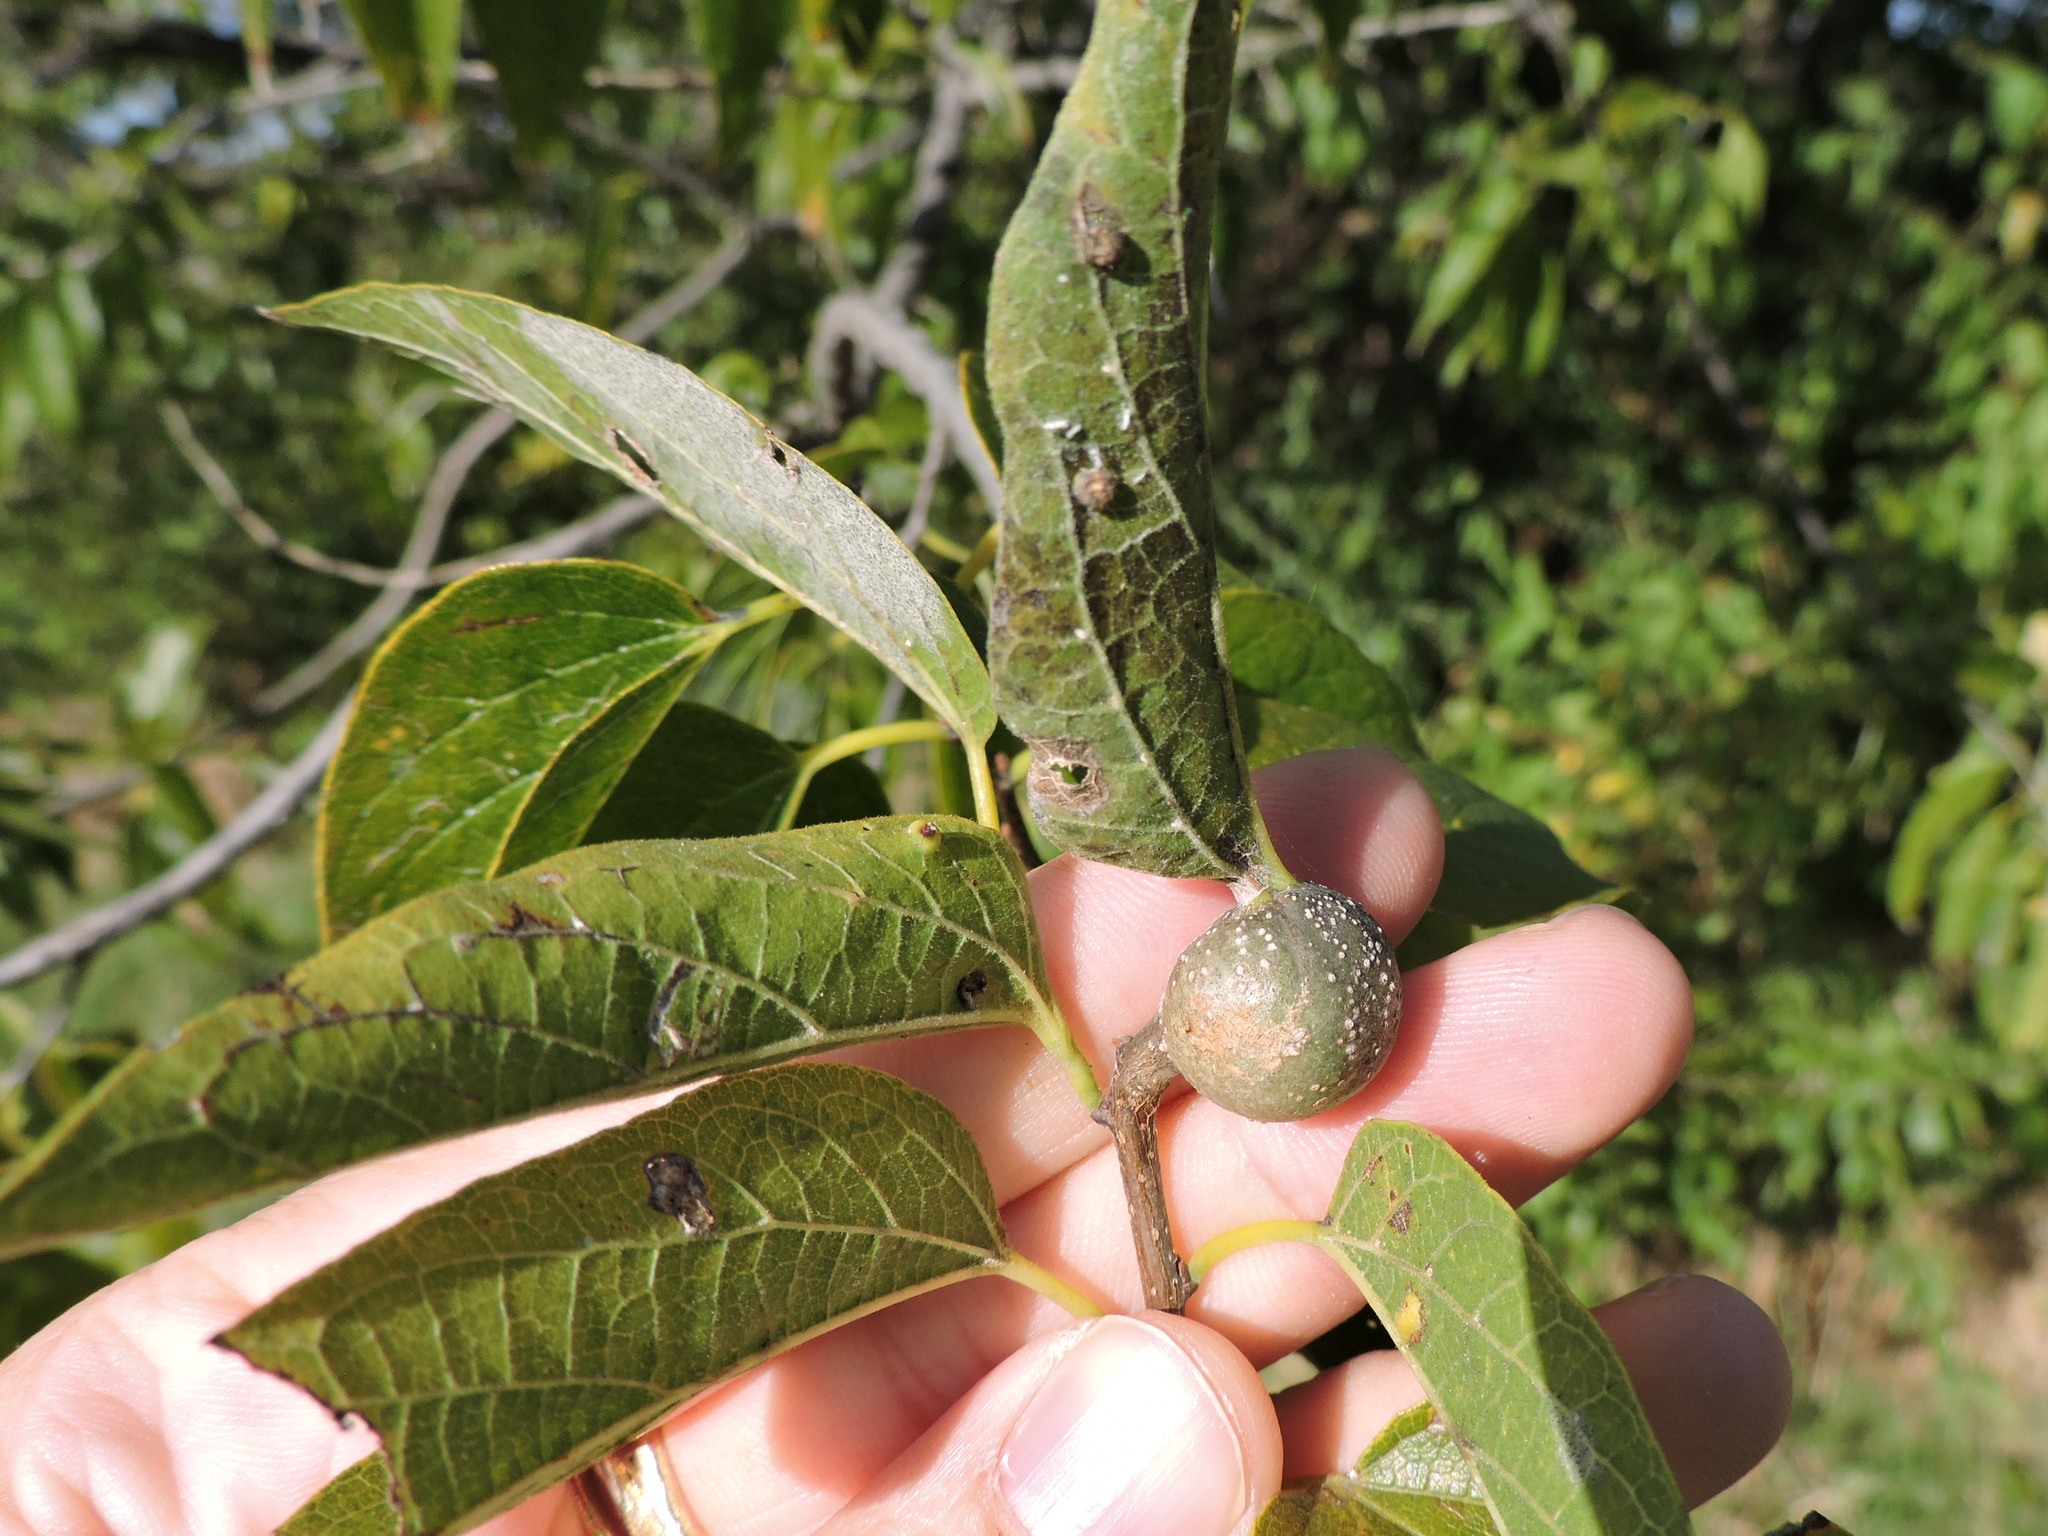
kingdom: Animalia
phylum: Arthropoda
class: Insecta
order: Hemiptera
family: Aphalaridae
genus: Pachypsylla
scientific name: Pachypsylla venusta
